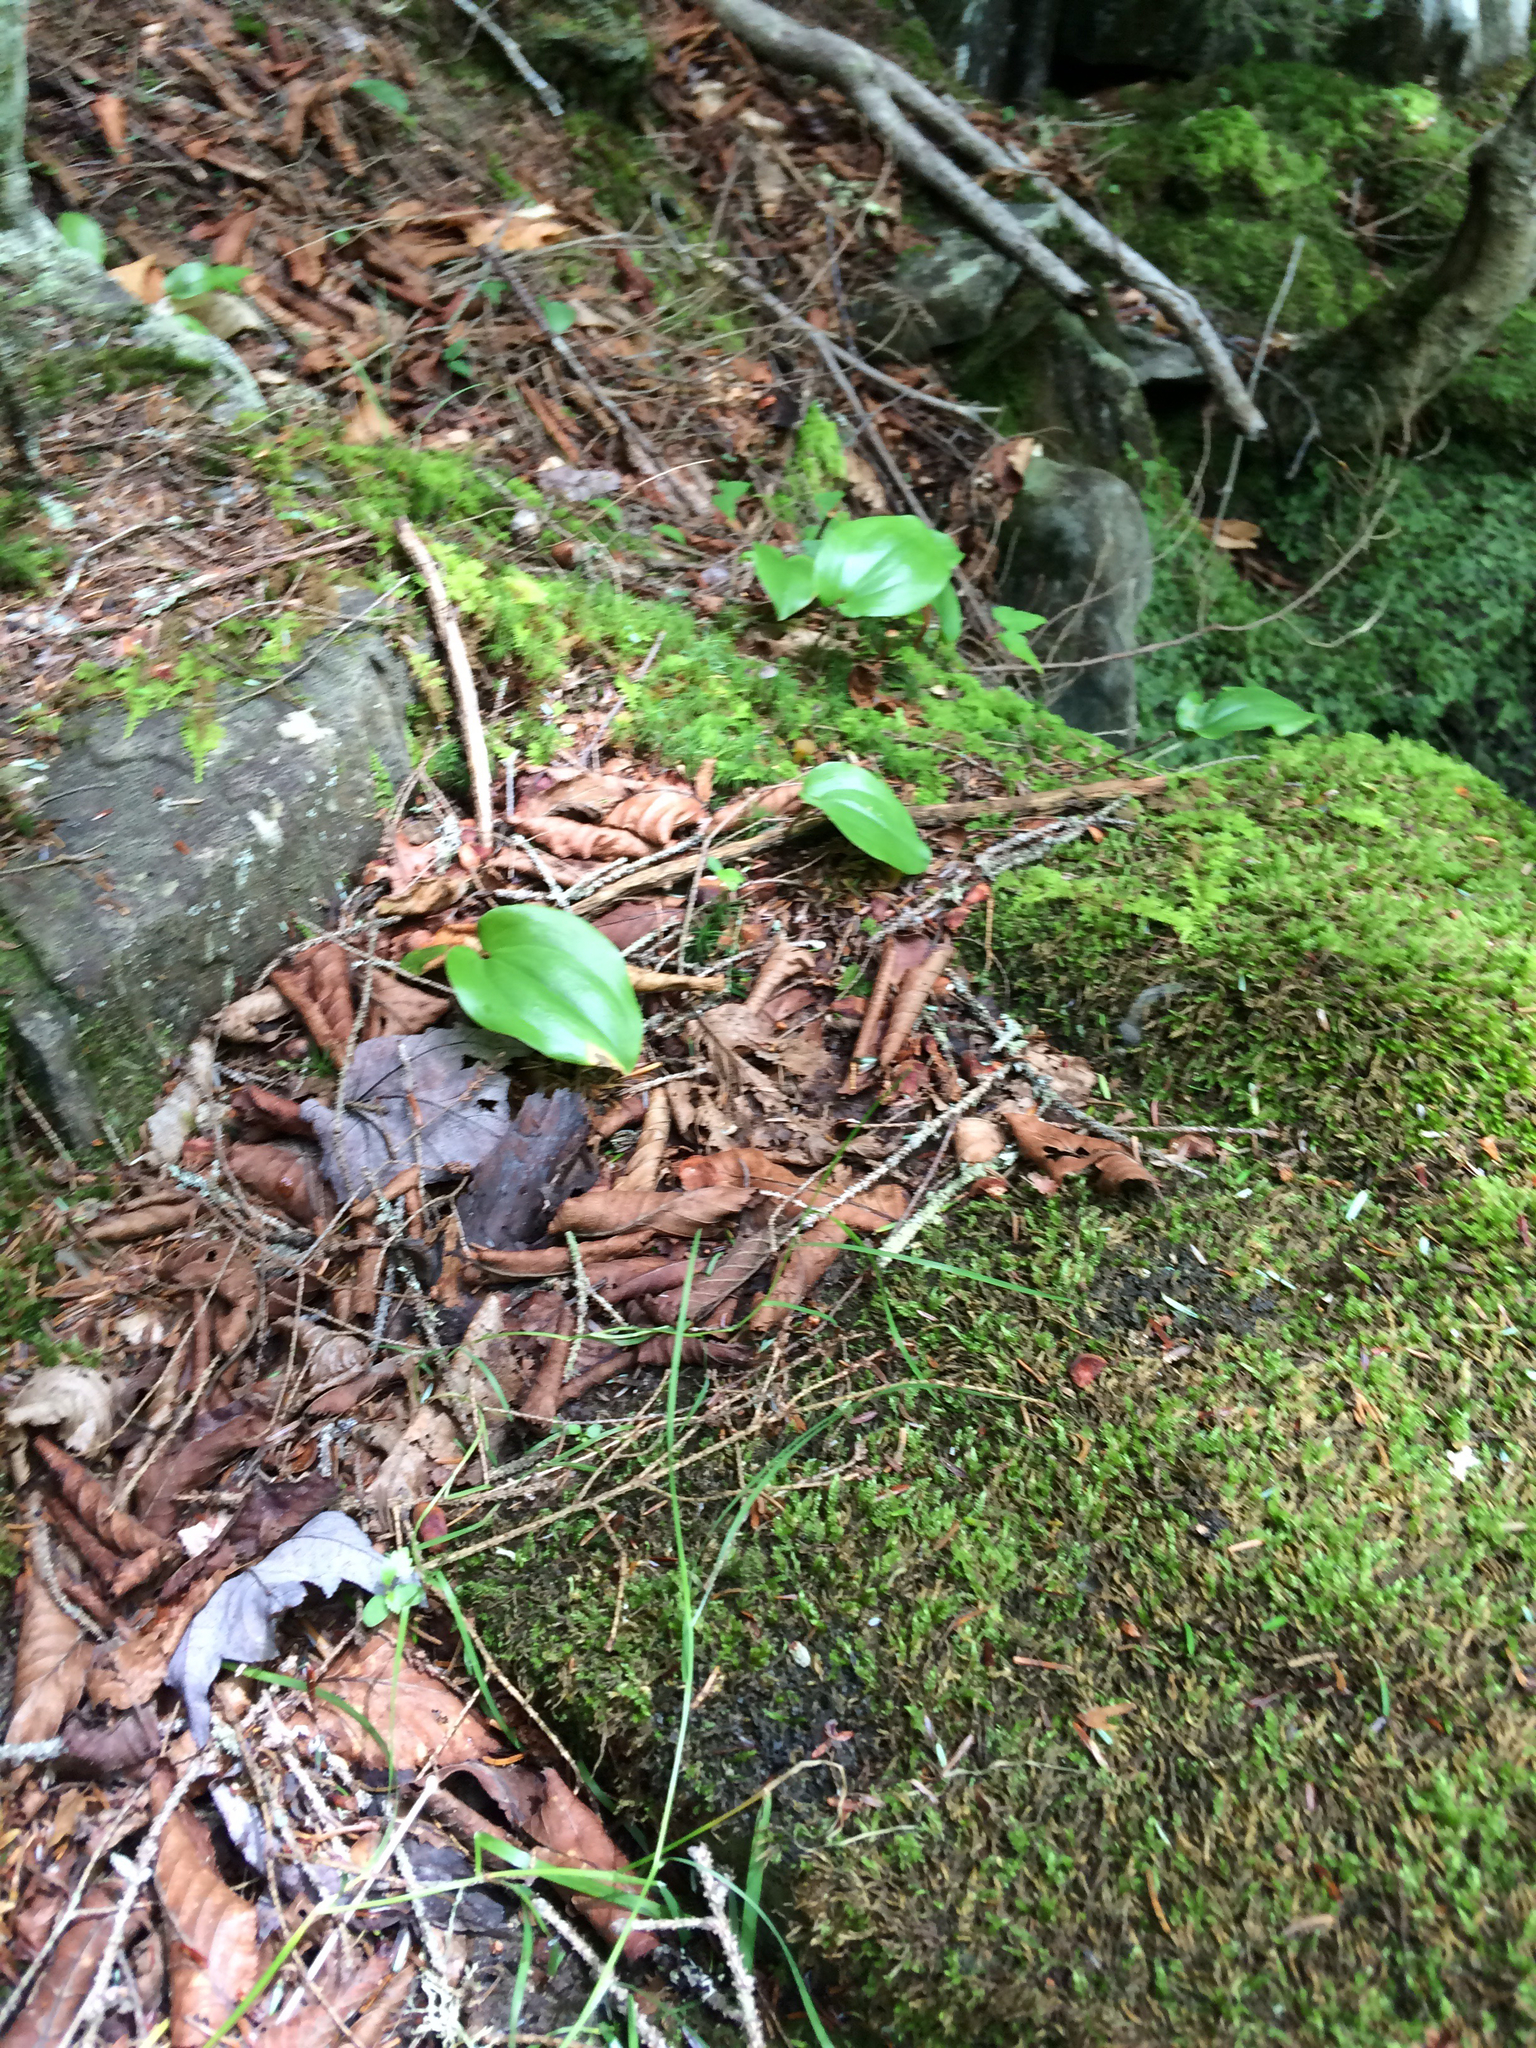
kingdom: Plantae
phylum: Tracheophyta
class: Liliopsida
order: Asparagales
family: Asparagaceae
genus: Maianthemum
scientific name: Maianthemum canadense
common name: False lily-of-the-valley
